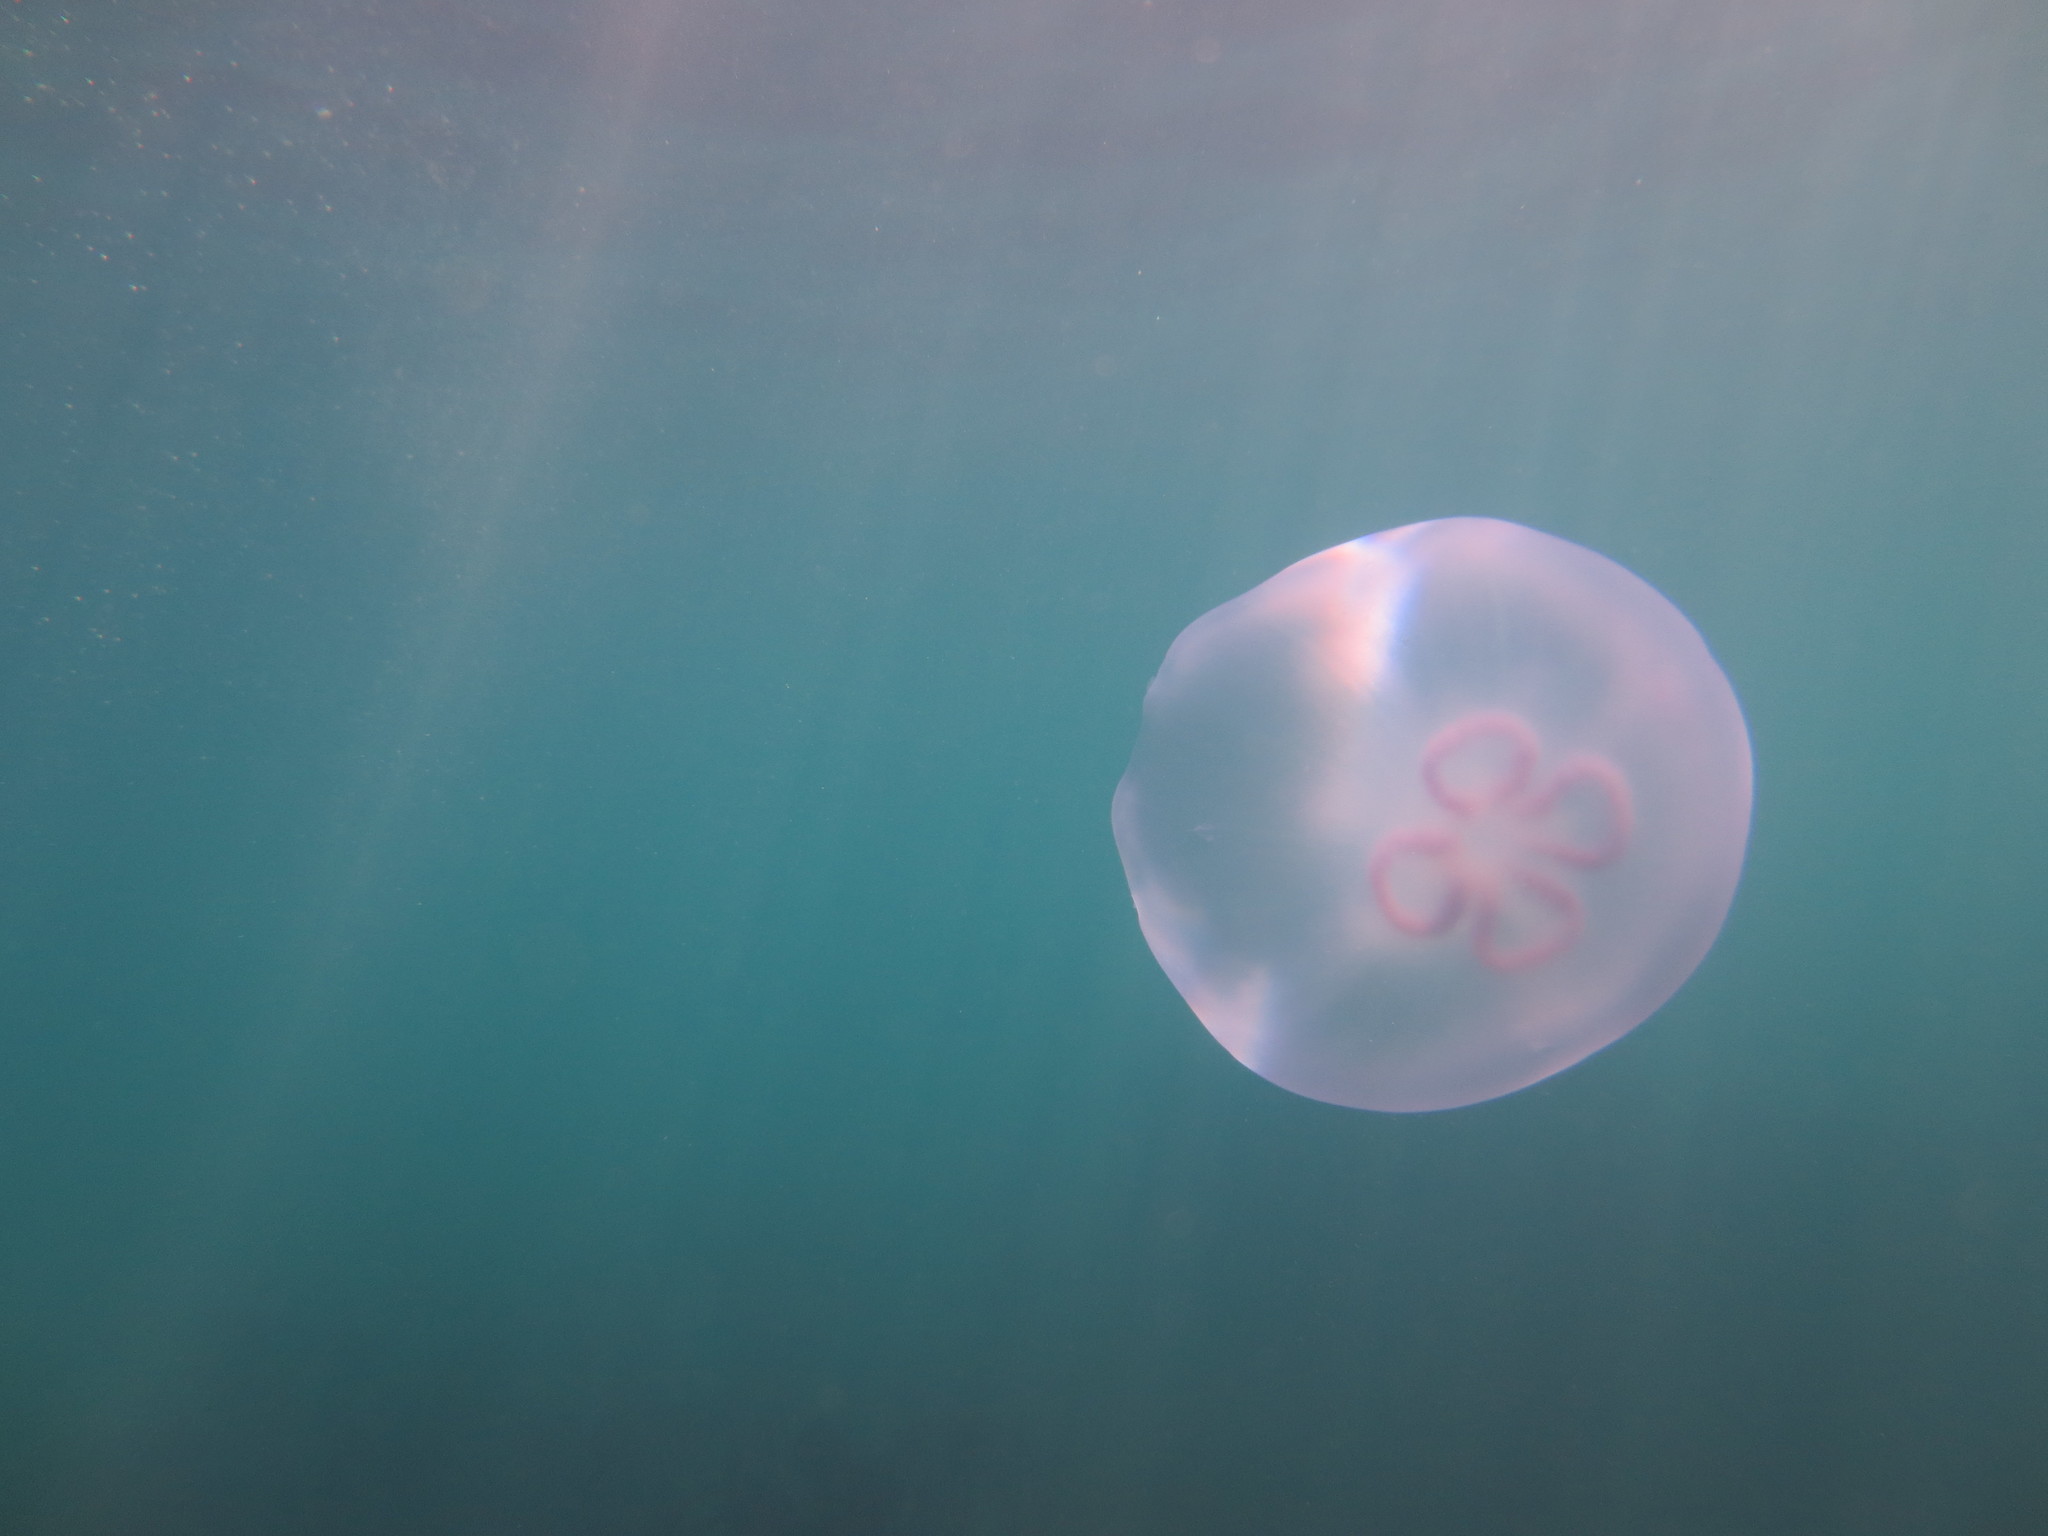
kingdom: Animalia
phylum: Cnidaria
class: Scyphozoa
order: Semaeostomeae
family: Ulmaridae
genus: Aurelia
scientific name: Aurelia labiata
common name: Pacific moon jelly
